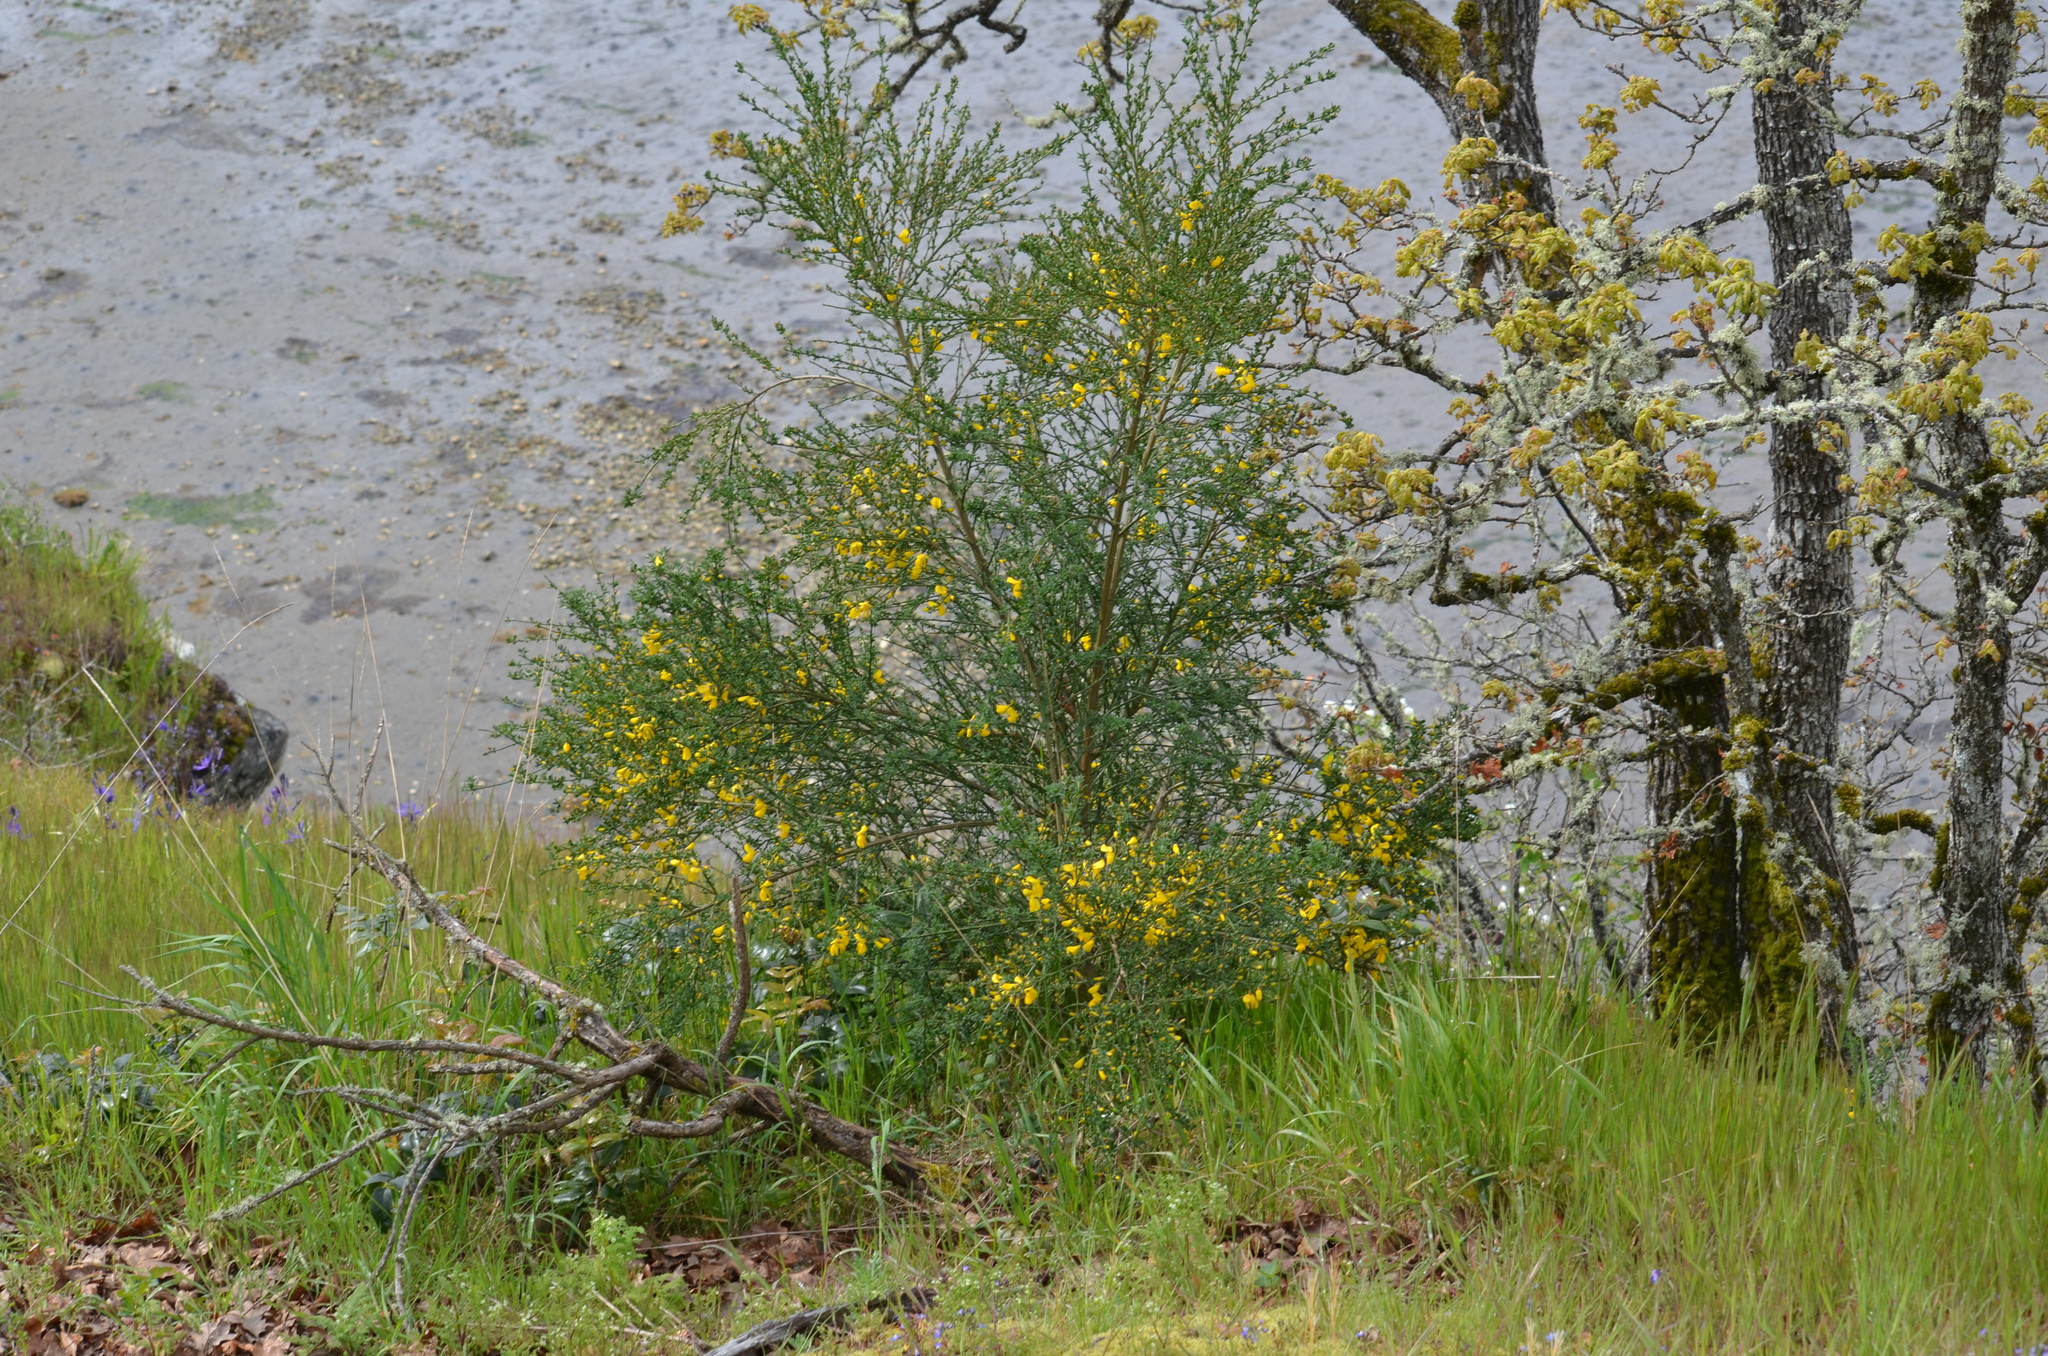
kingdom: Plantae
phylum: Tracheophyta
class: Magnoliopsida
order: Fabales
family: Fabaceae
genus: Cytisus
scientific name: Cytisus scoparius
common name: Scotch broom
